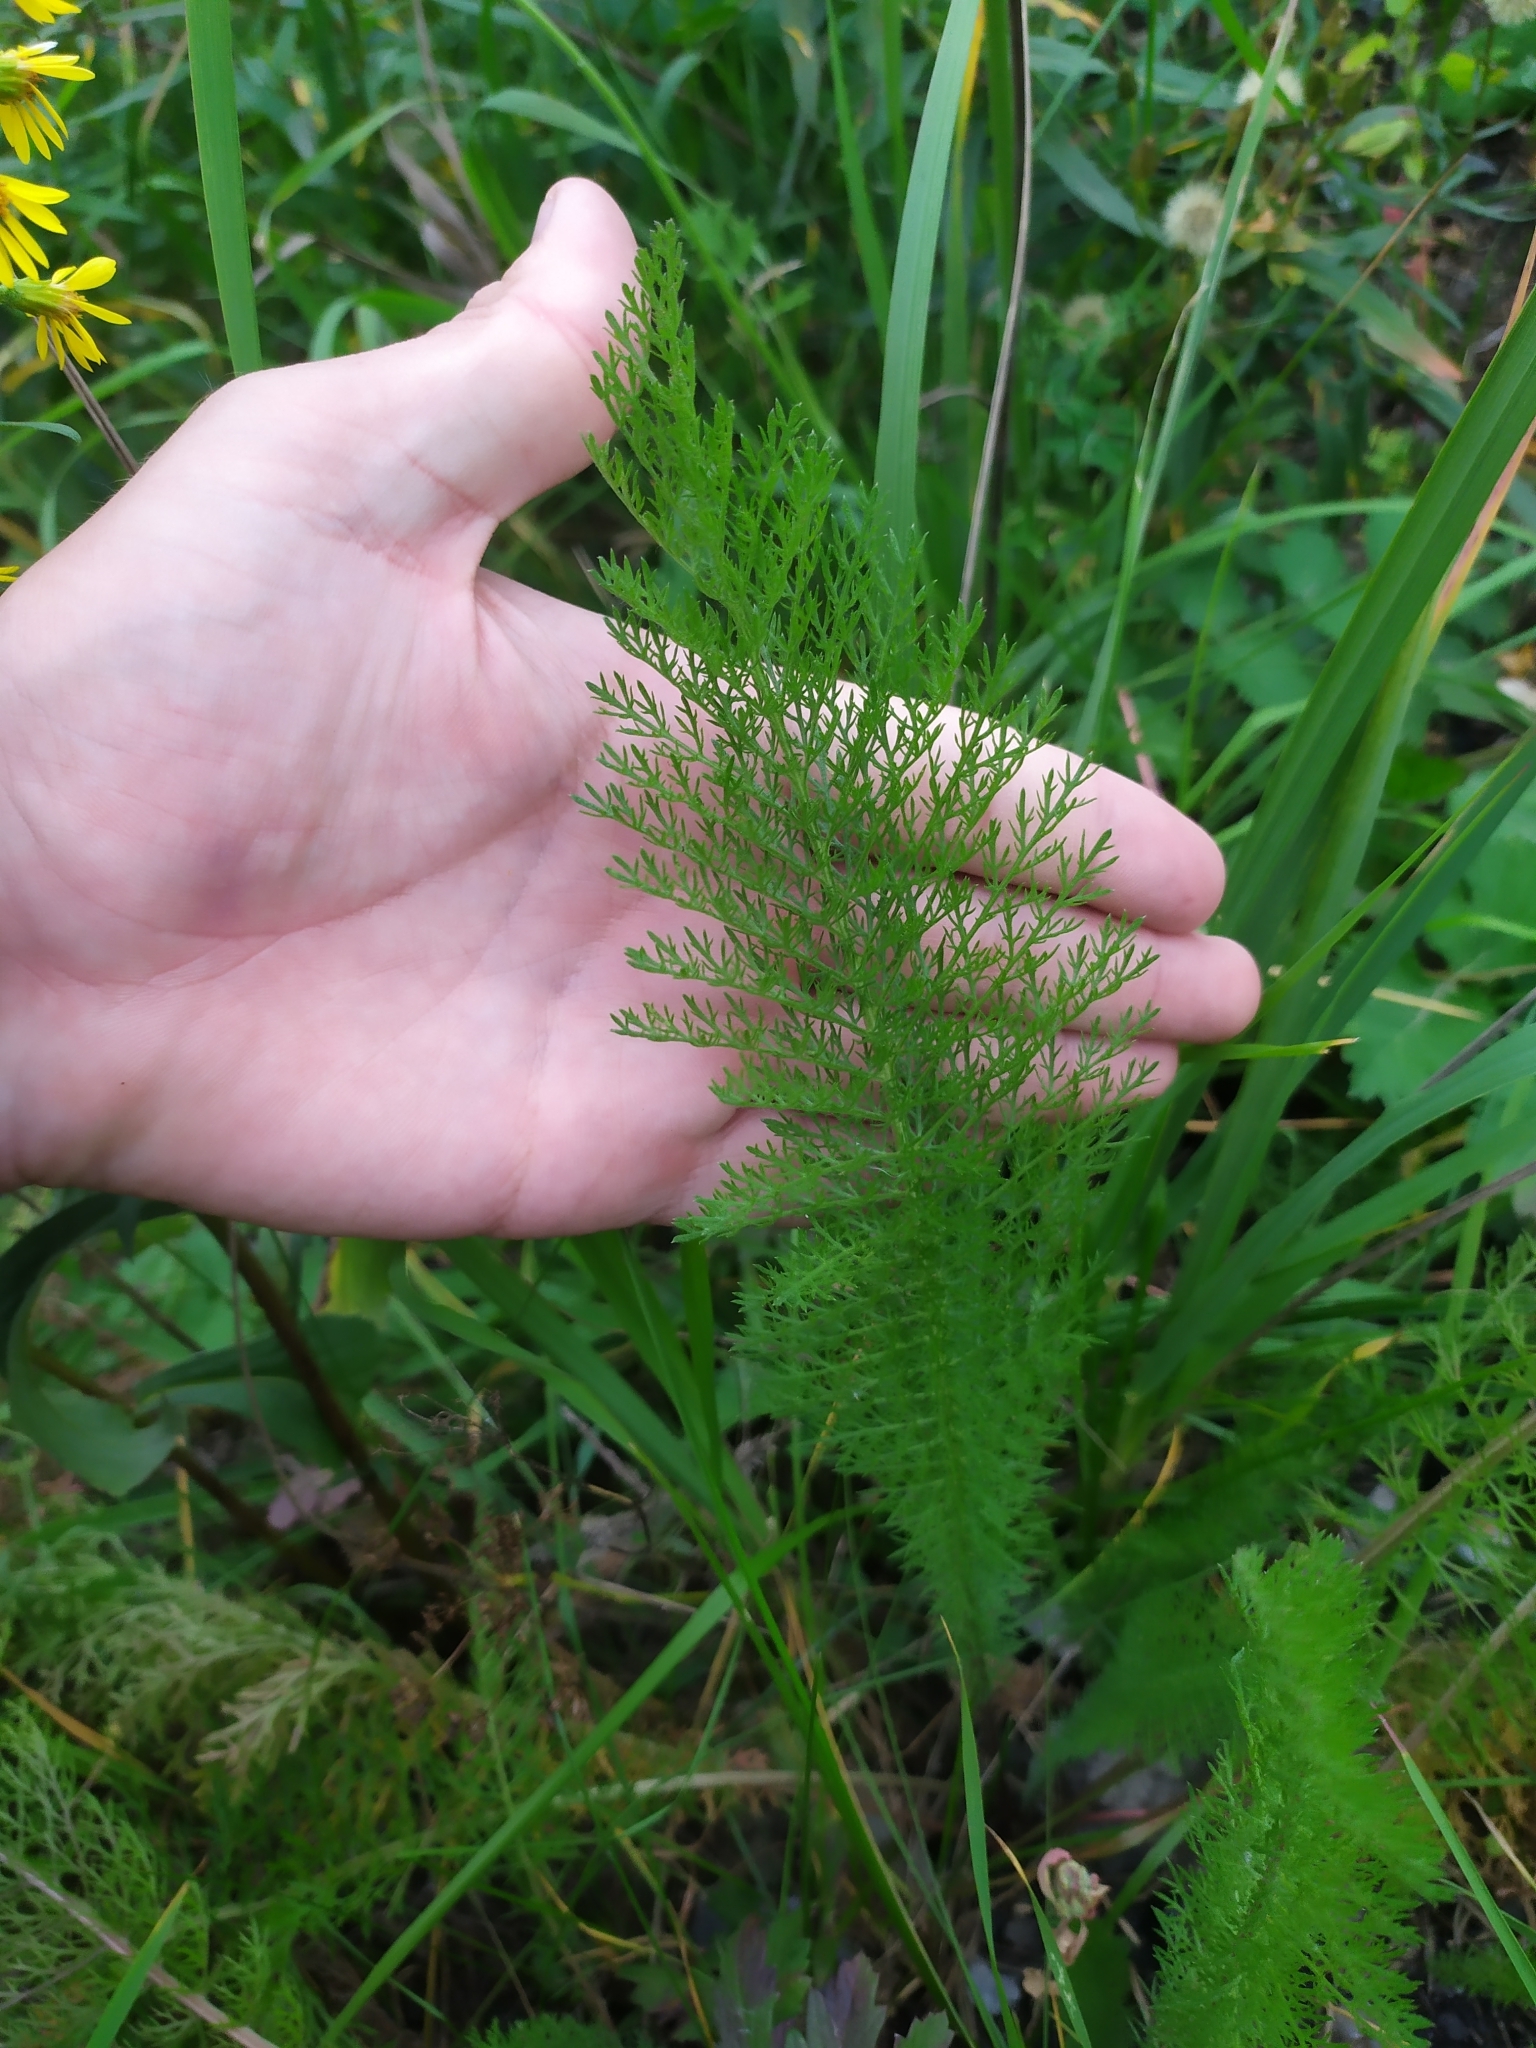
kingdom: Plantae
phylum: Tracheophyta
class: Magnoliopsida
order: Asterales
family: Asteraceae
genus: Achillea
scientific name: Achillea millefolium
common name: Yarrow
